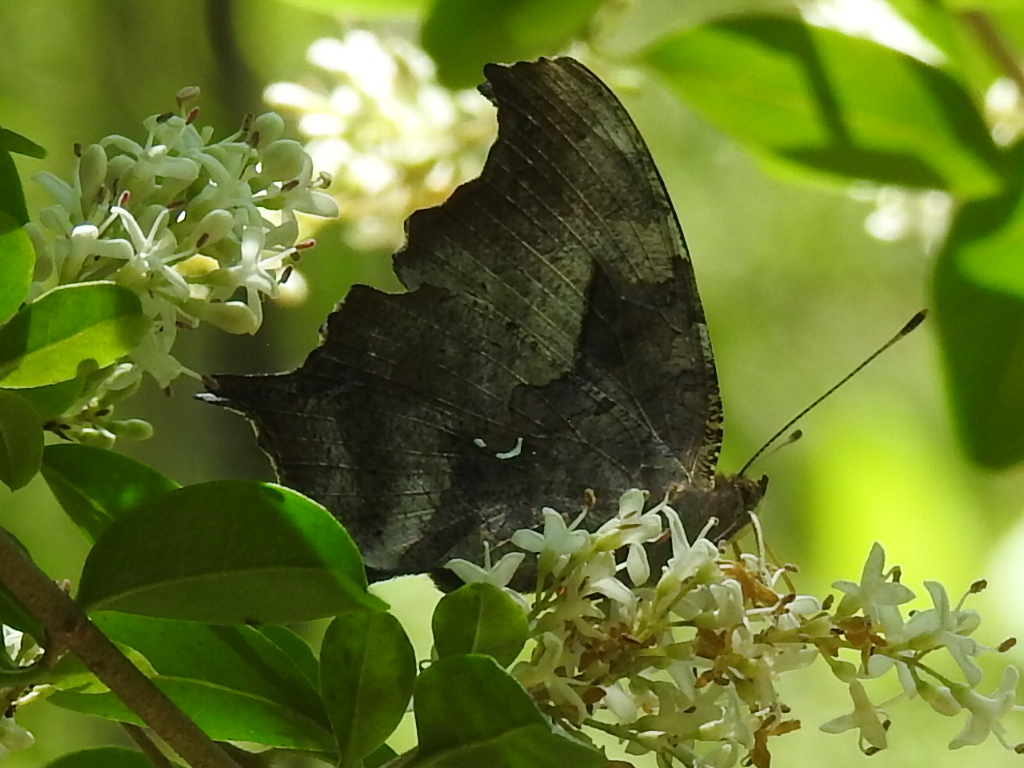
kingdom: Animalia
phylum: Arthropoda
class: Insecta
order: Lepidoptera
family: Nymphalidae
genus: Polygonia
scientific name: Polygonia interrogationis
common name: Question mark
